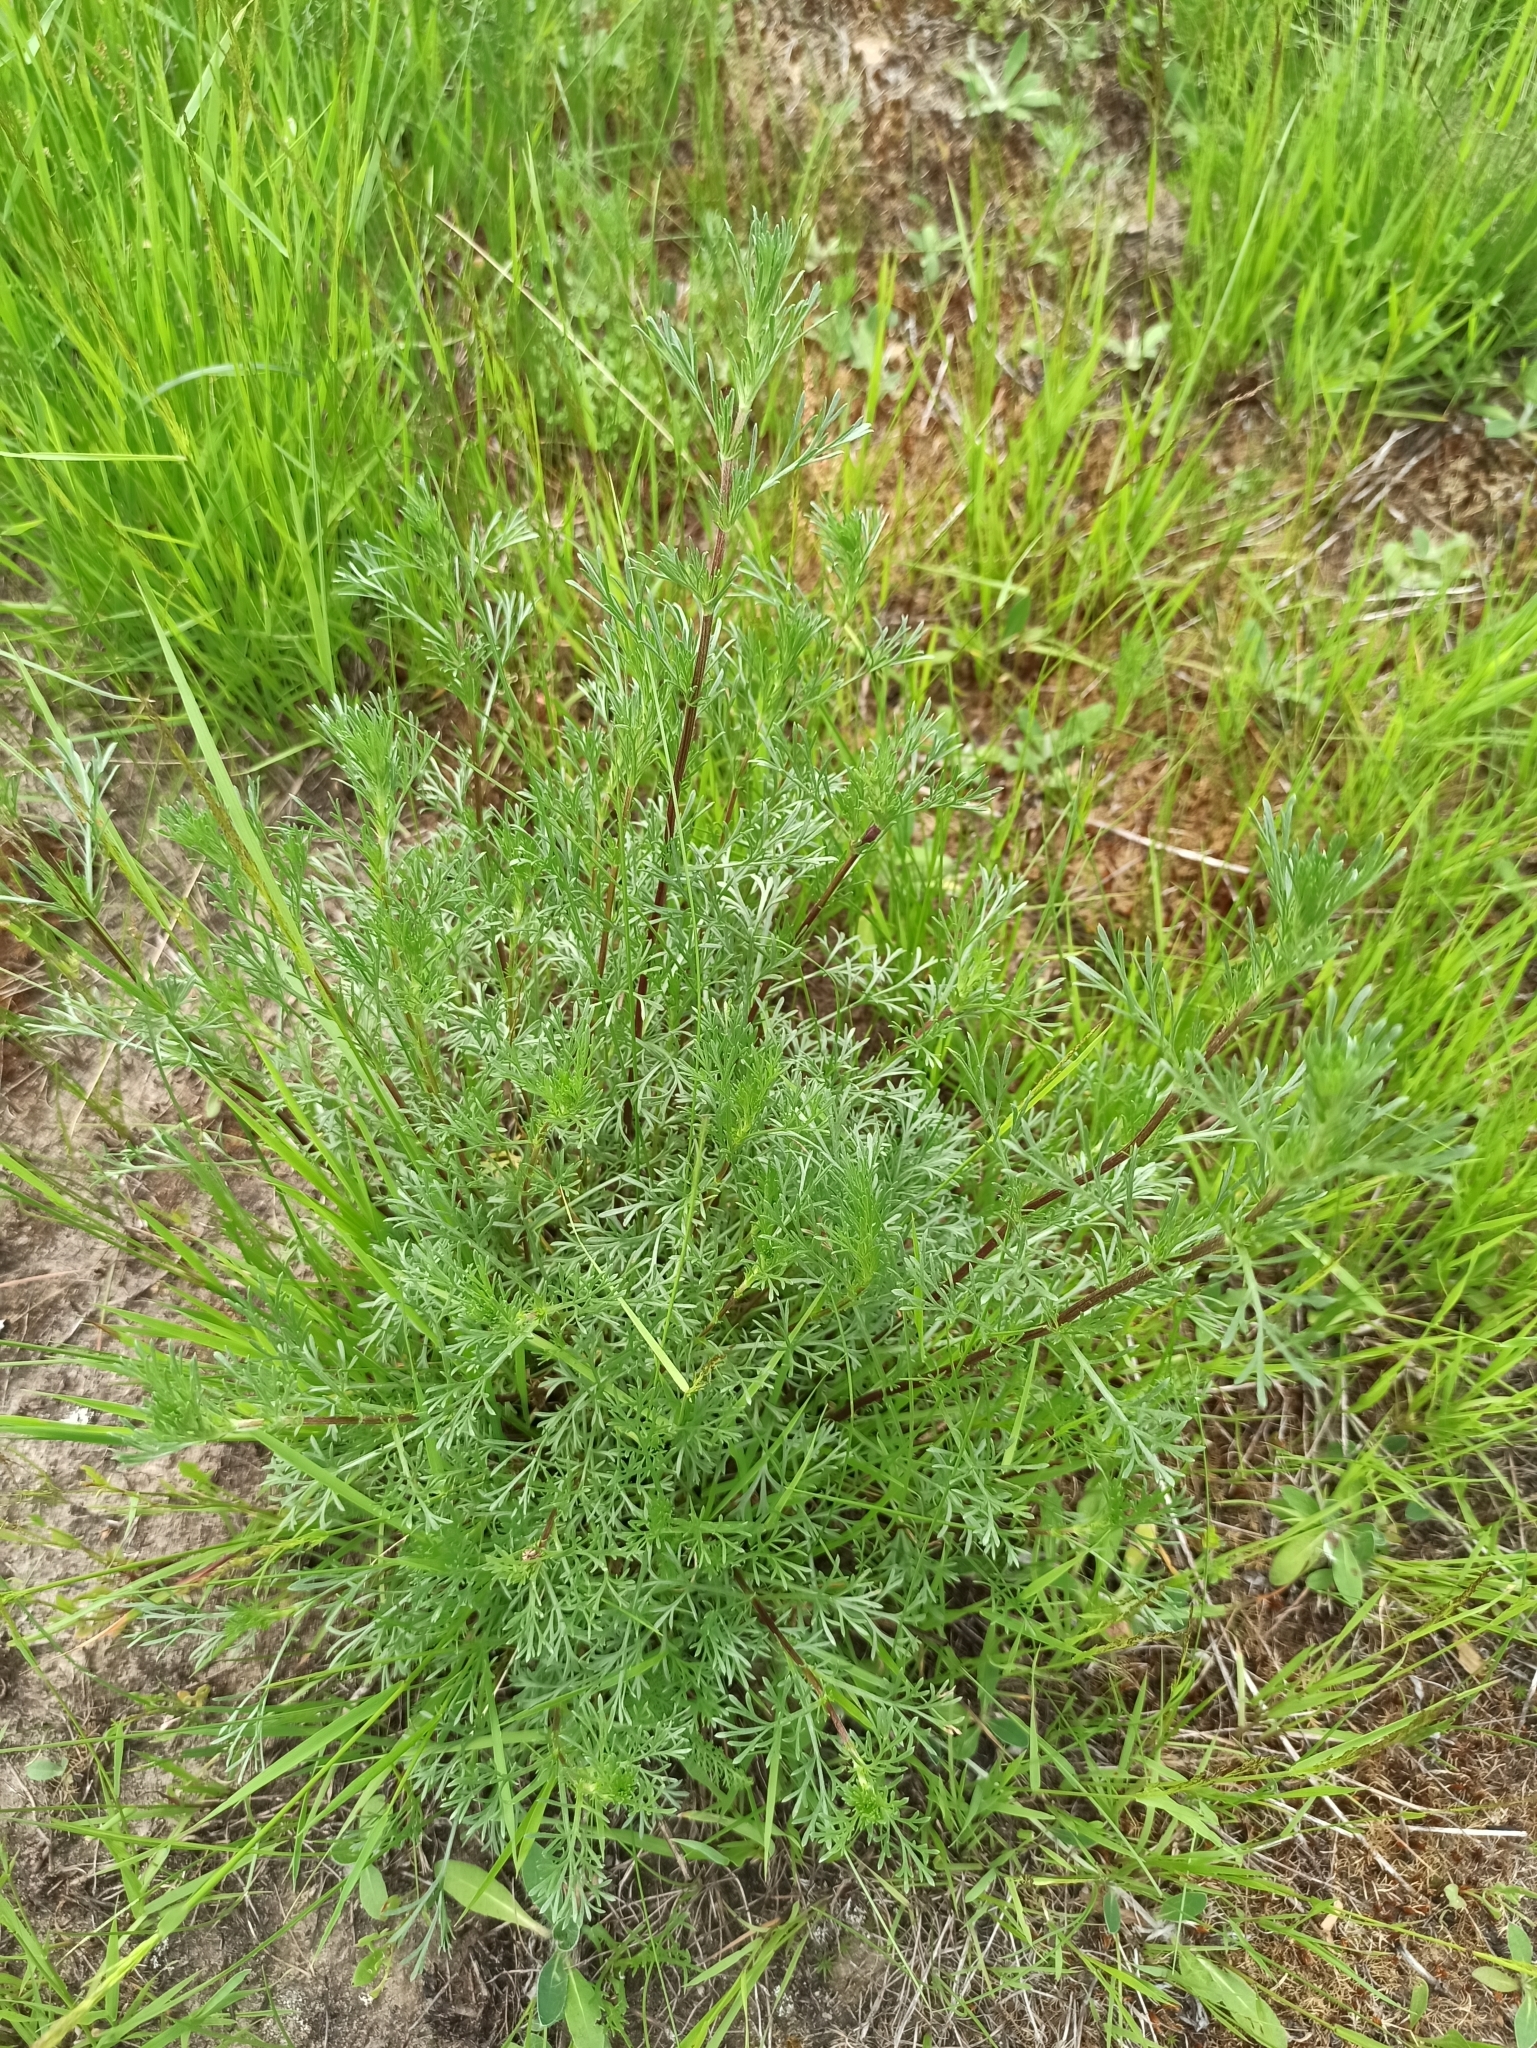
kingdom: Plantae
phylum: Tracheophyta
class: Magnoliopsida
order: Asterales
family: Asteraceae
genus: Artemisia
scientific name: Artemisia campestris
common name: Field wormwood
